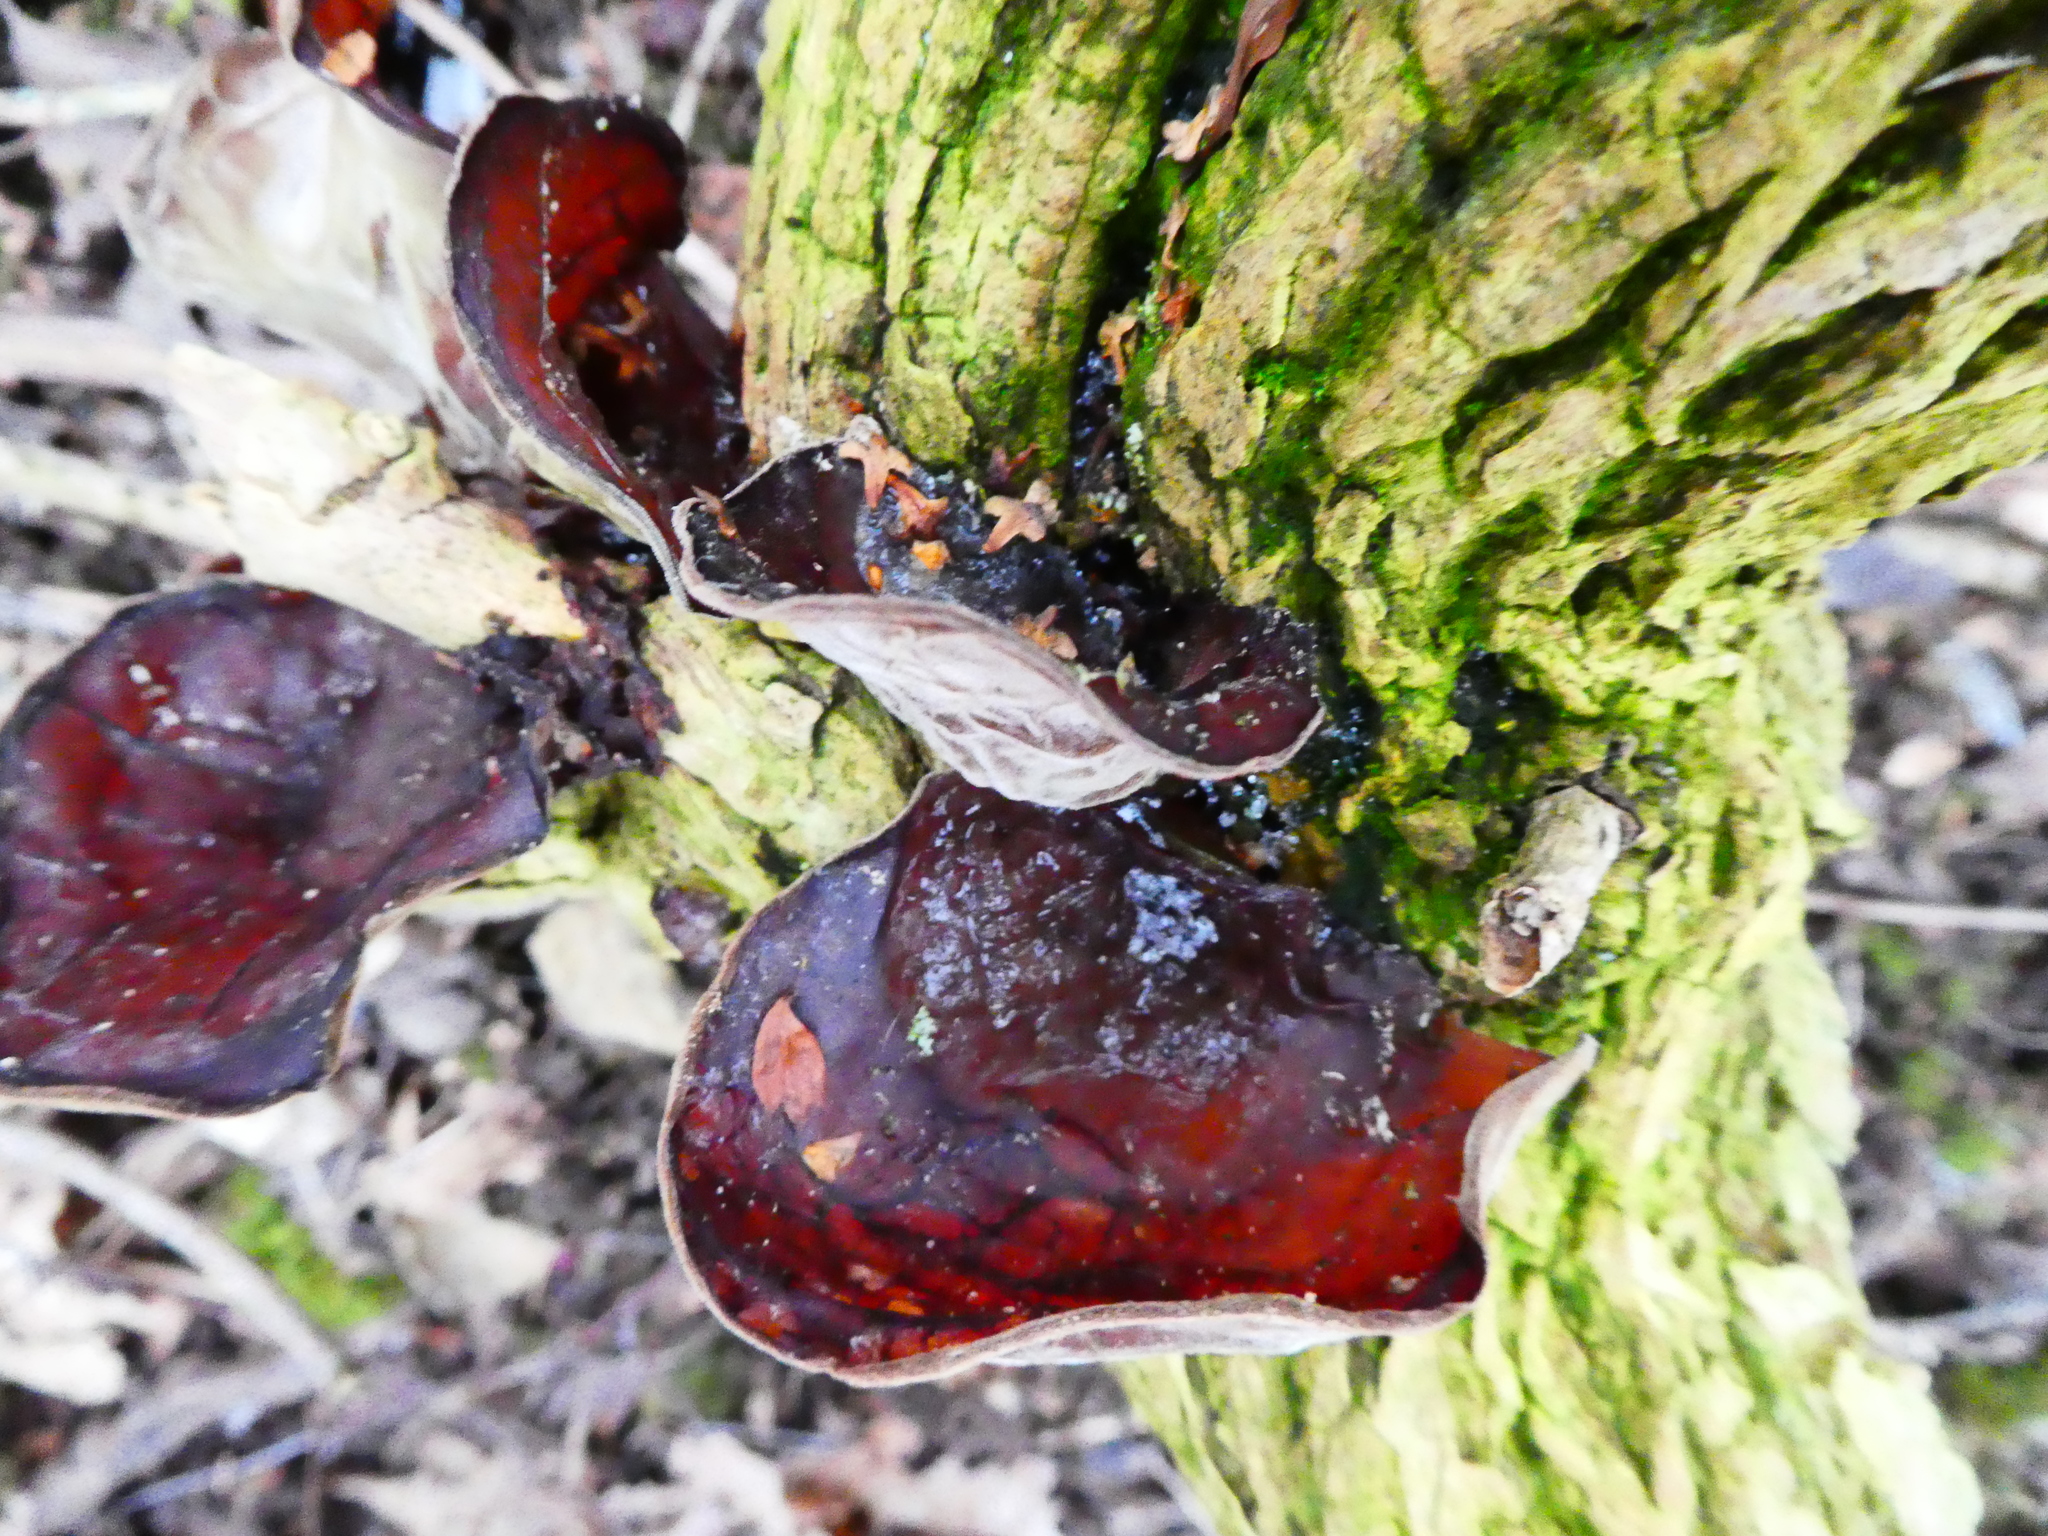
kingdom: Fungi
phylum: Basidiomycota
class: Agaricomycetes
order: Auriculariales
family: Auriculariaceae
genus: Auricularia
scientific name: Auricularia auricula-judae
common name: Jelly ear
